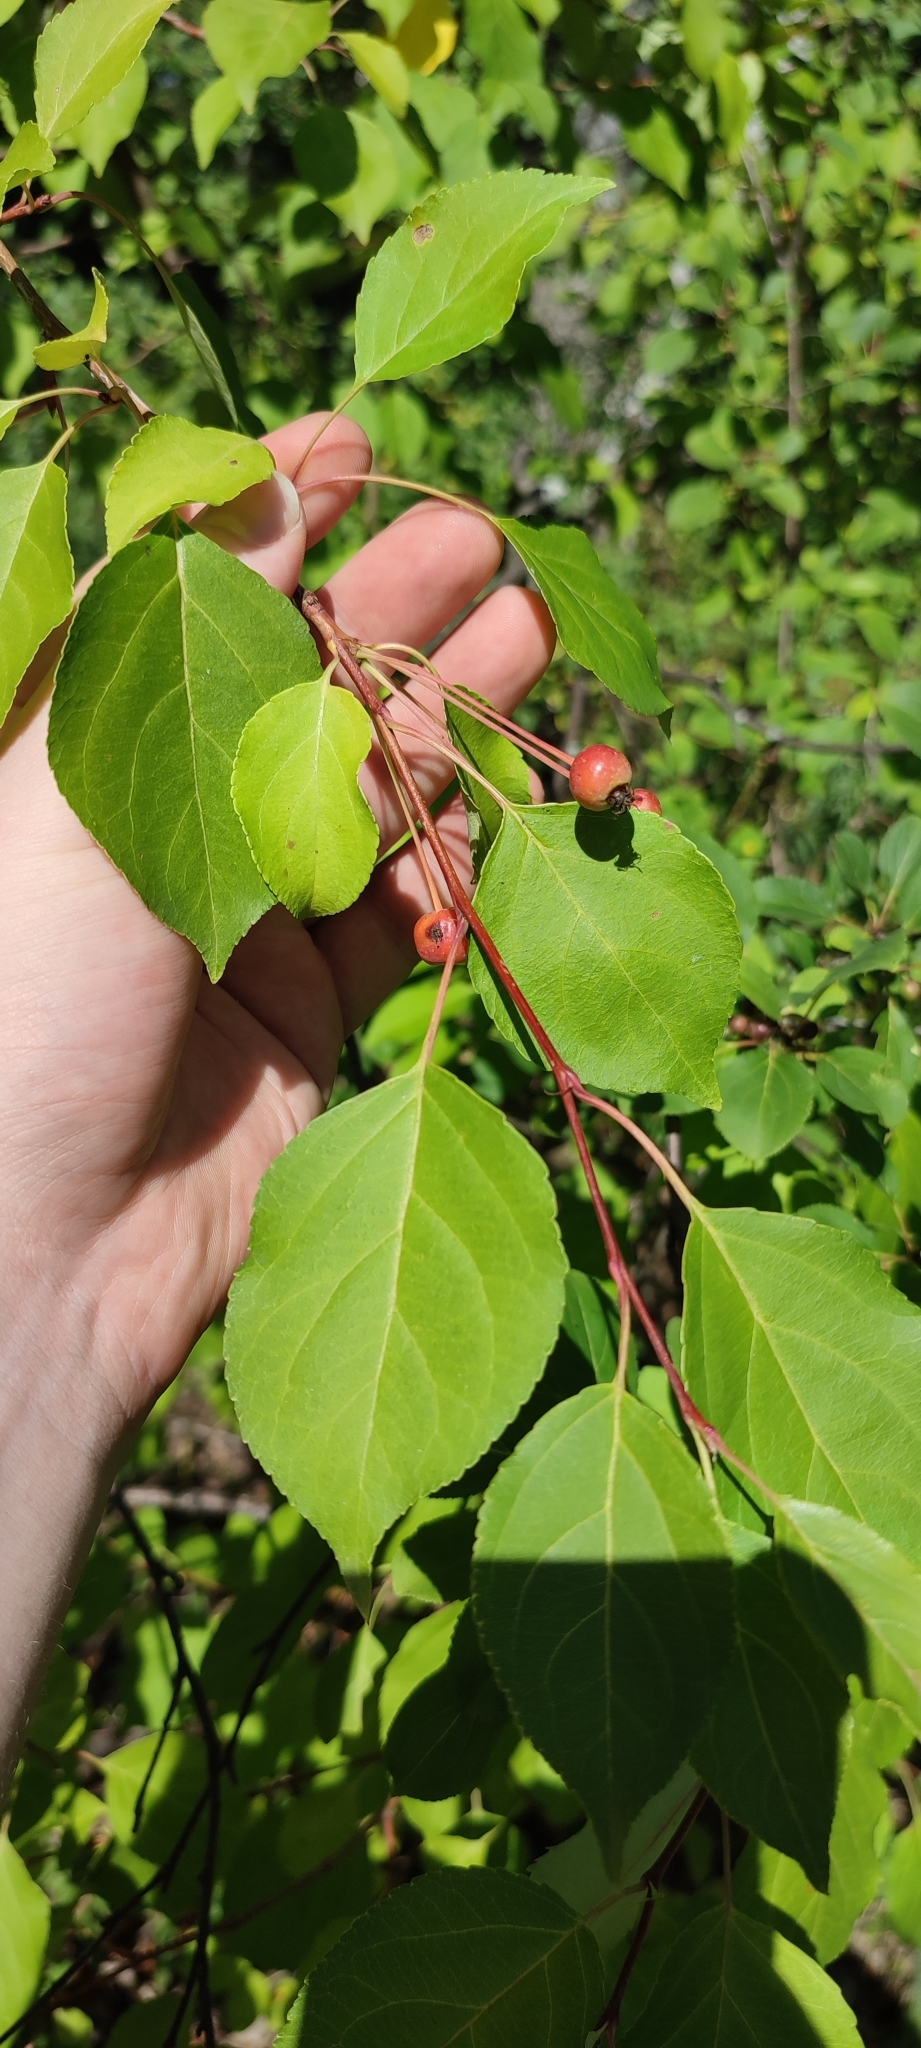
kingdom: Plantae
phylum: Tracheophyta
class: Magnoliopsida
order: Rosales
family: Rosaceae
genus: Malus
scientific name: Malus baccata
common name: Siberian crab
